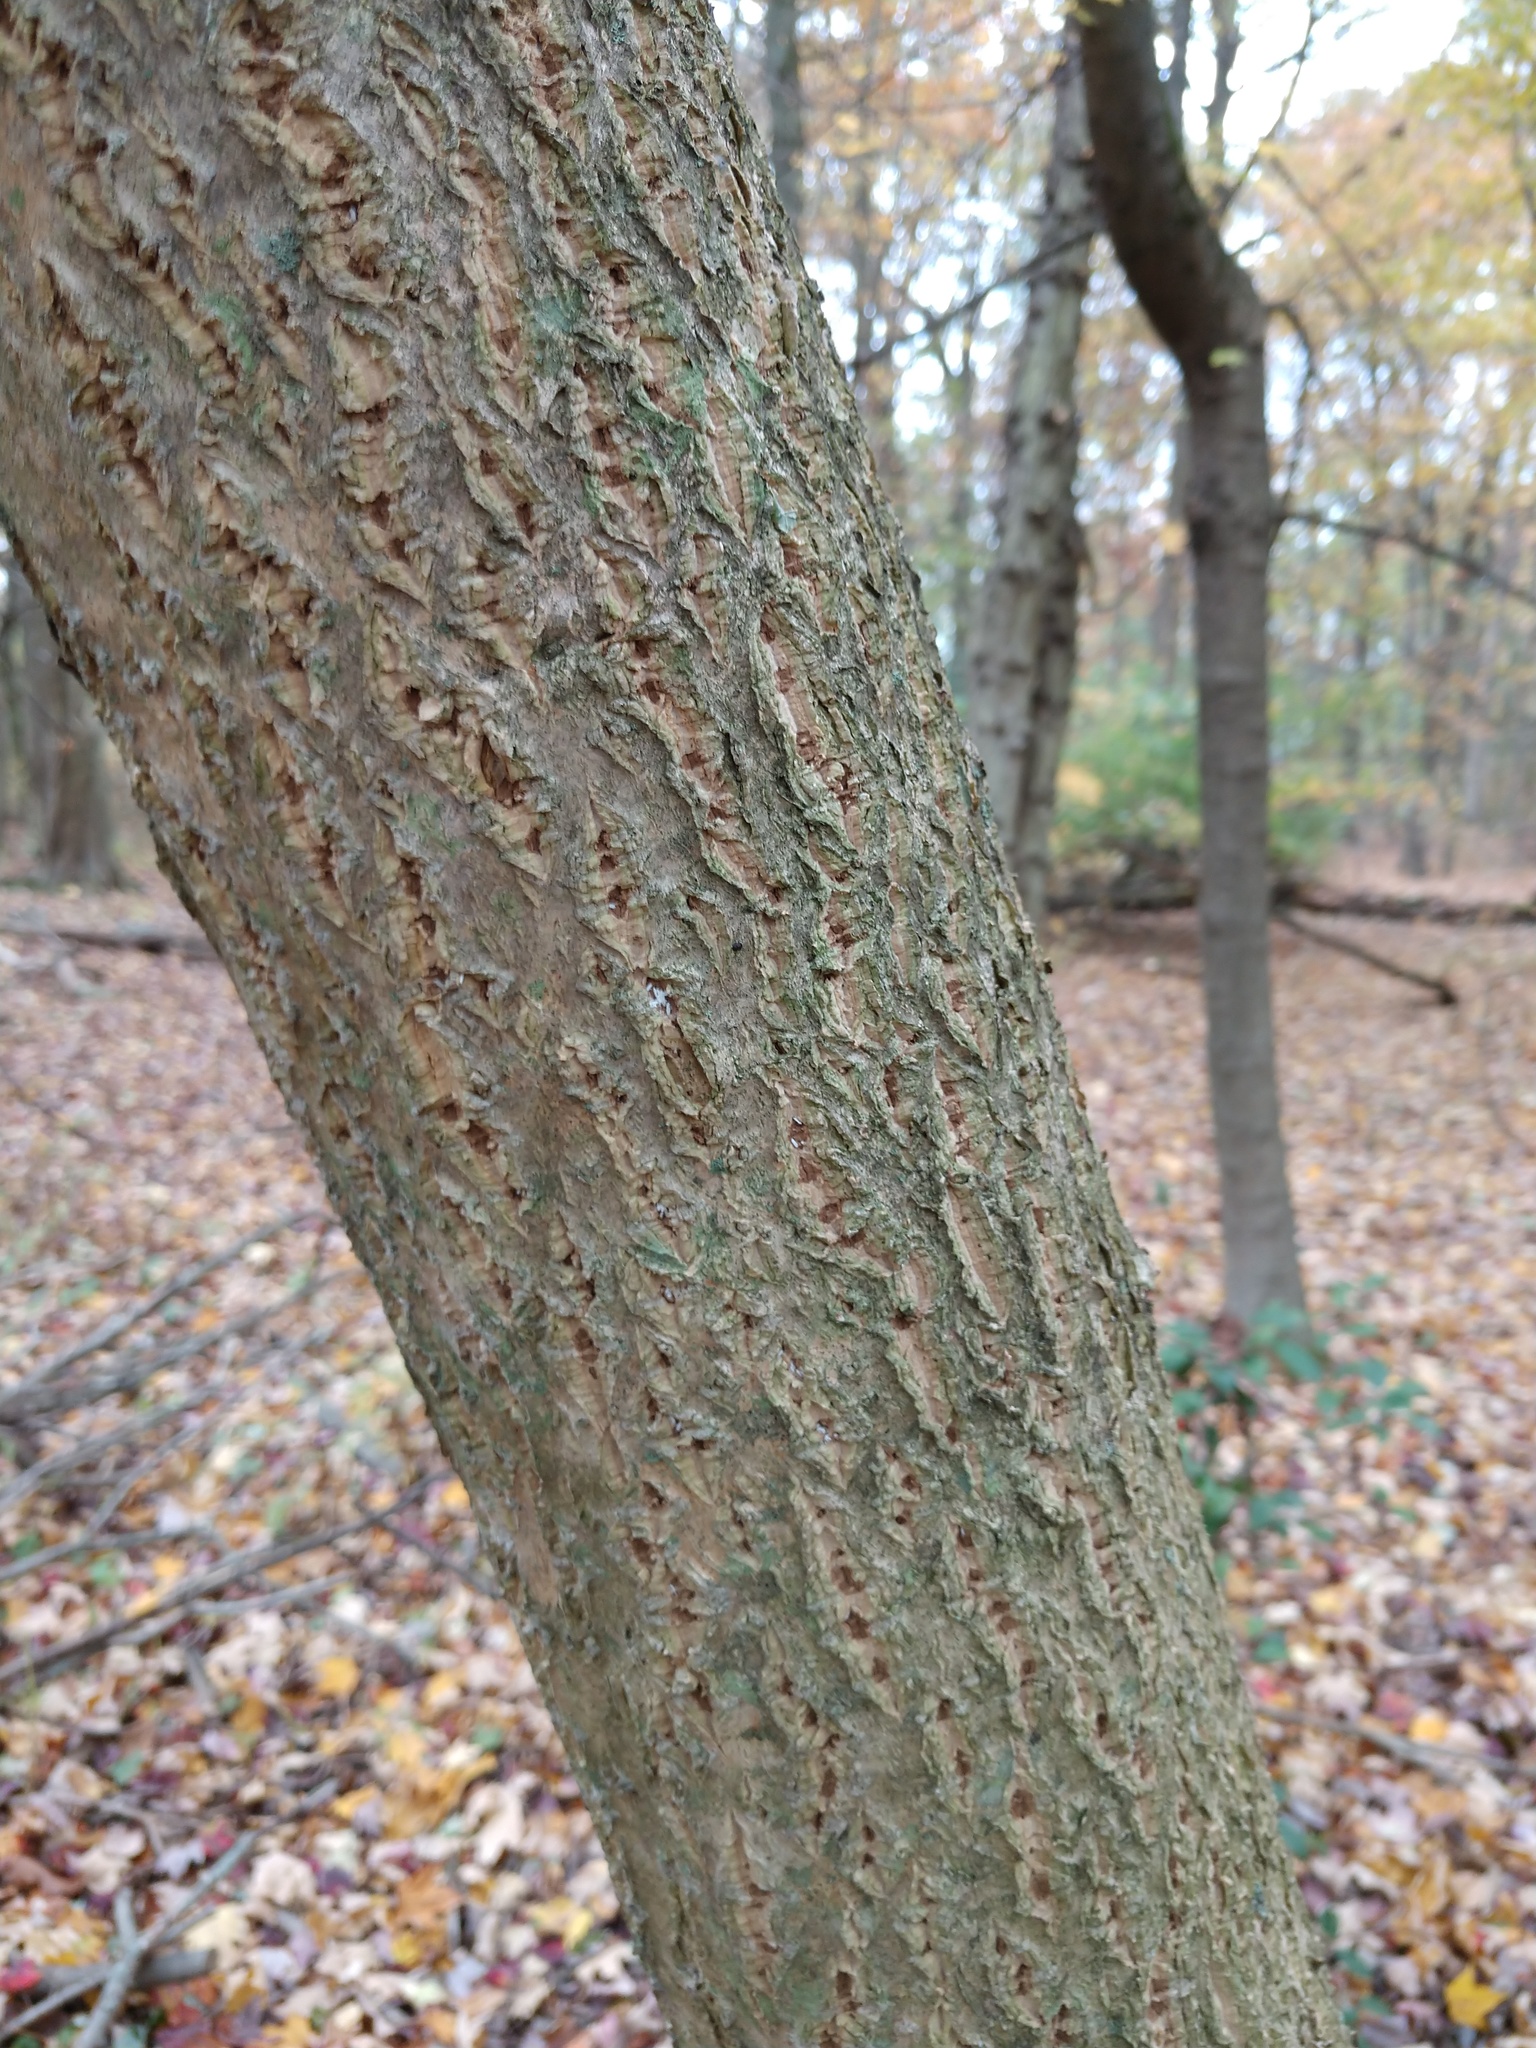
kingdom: Plantae
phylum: Tracheophyta
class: Magnoliopsida
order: Sapindales
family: Rutaceae
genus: Phellodendron
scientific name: Phellodendron amurense
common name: Amur corktree
